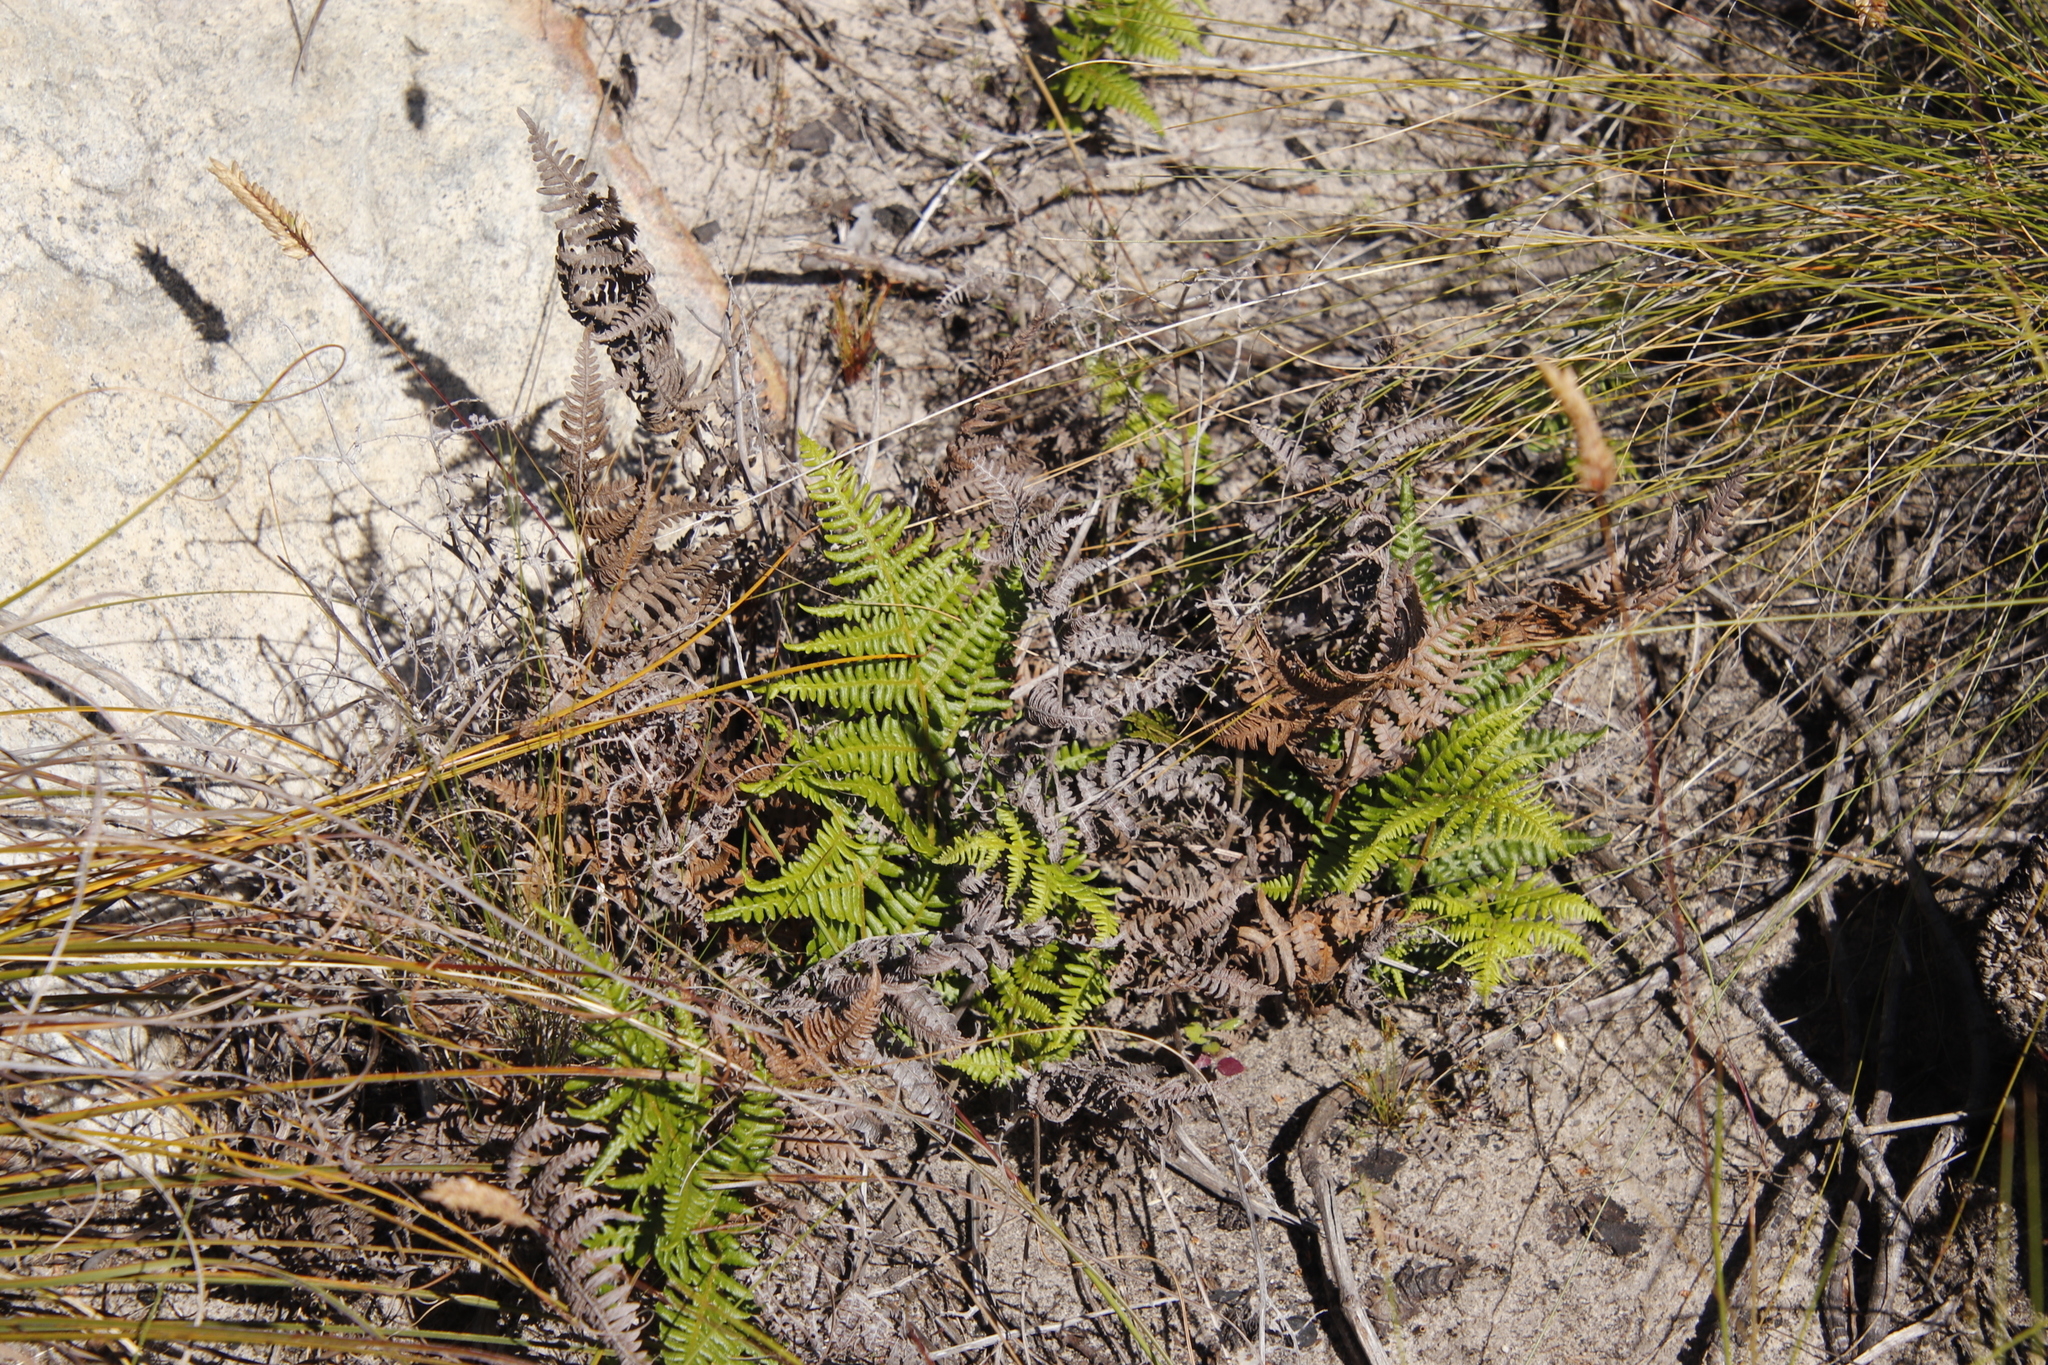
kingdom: Plantae
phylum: Tracheophyta
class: Polypodiopsida
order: Polypodiales
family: Dennstaedtiaceae
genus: Pteridium
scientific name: Pteridium aquilinum
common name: Bracken
